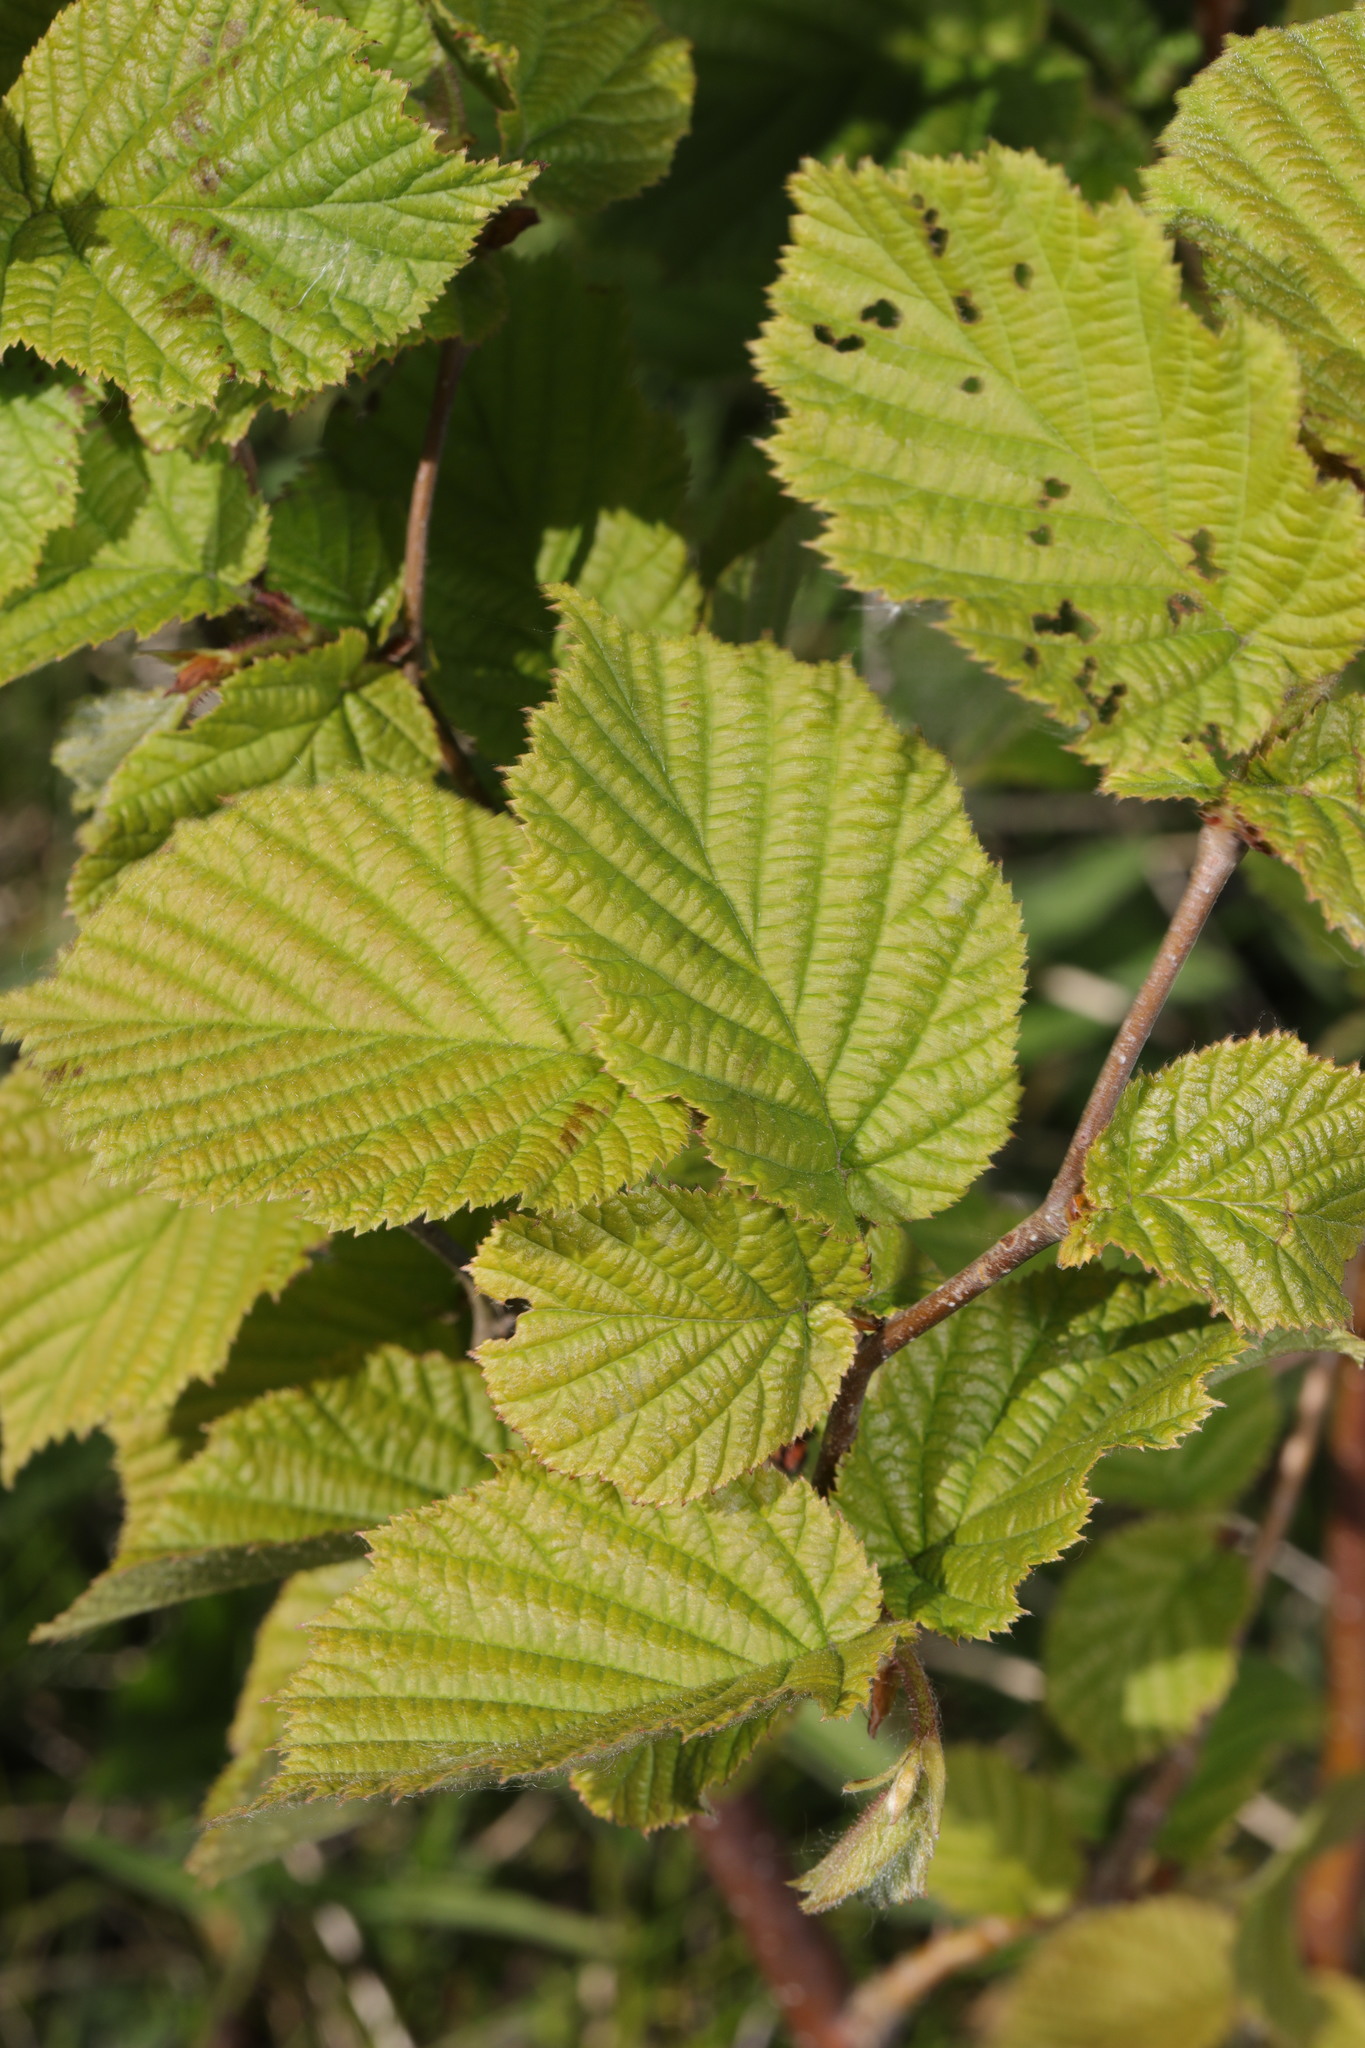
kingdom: Plantae
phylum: Tracheophyta
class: Magnoliopsida
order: Fagales
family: Betulaceae
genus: Corylus
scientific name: Corylus avellana
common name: European hazel
